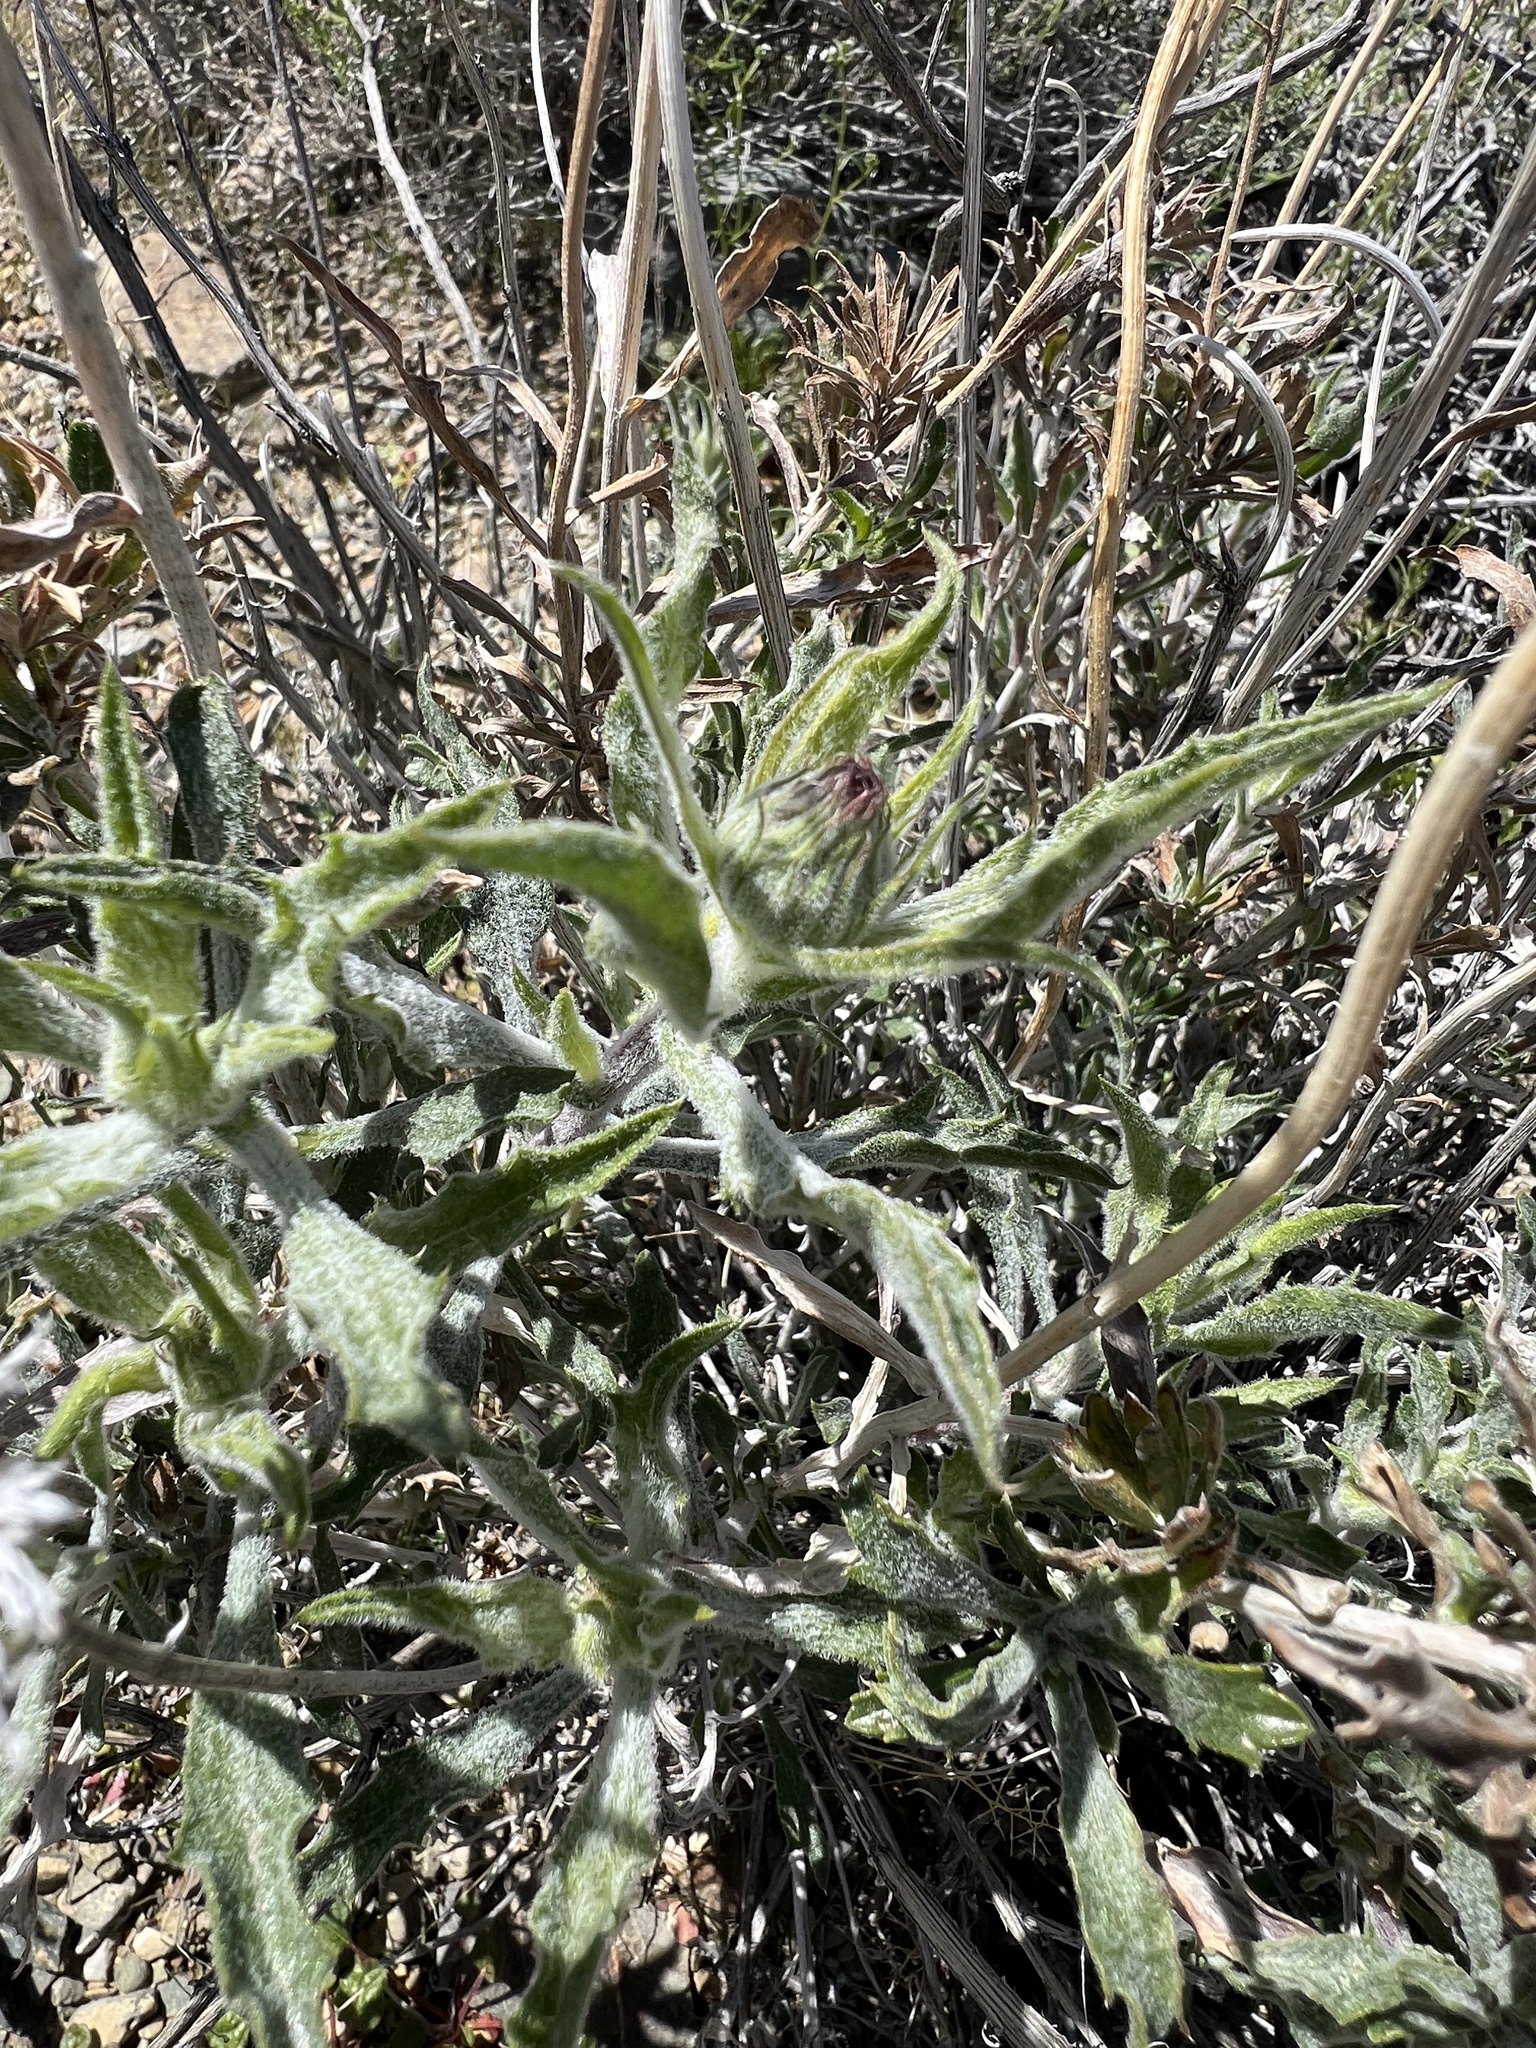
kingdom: Plantae
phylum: Tracheophyta
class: Magnoliopsida
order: Asterales
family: Asteraceae
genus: Xylorhiza
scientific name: Xylorhiza tortifolia
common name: Hurt-leaf woody-aster
